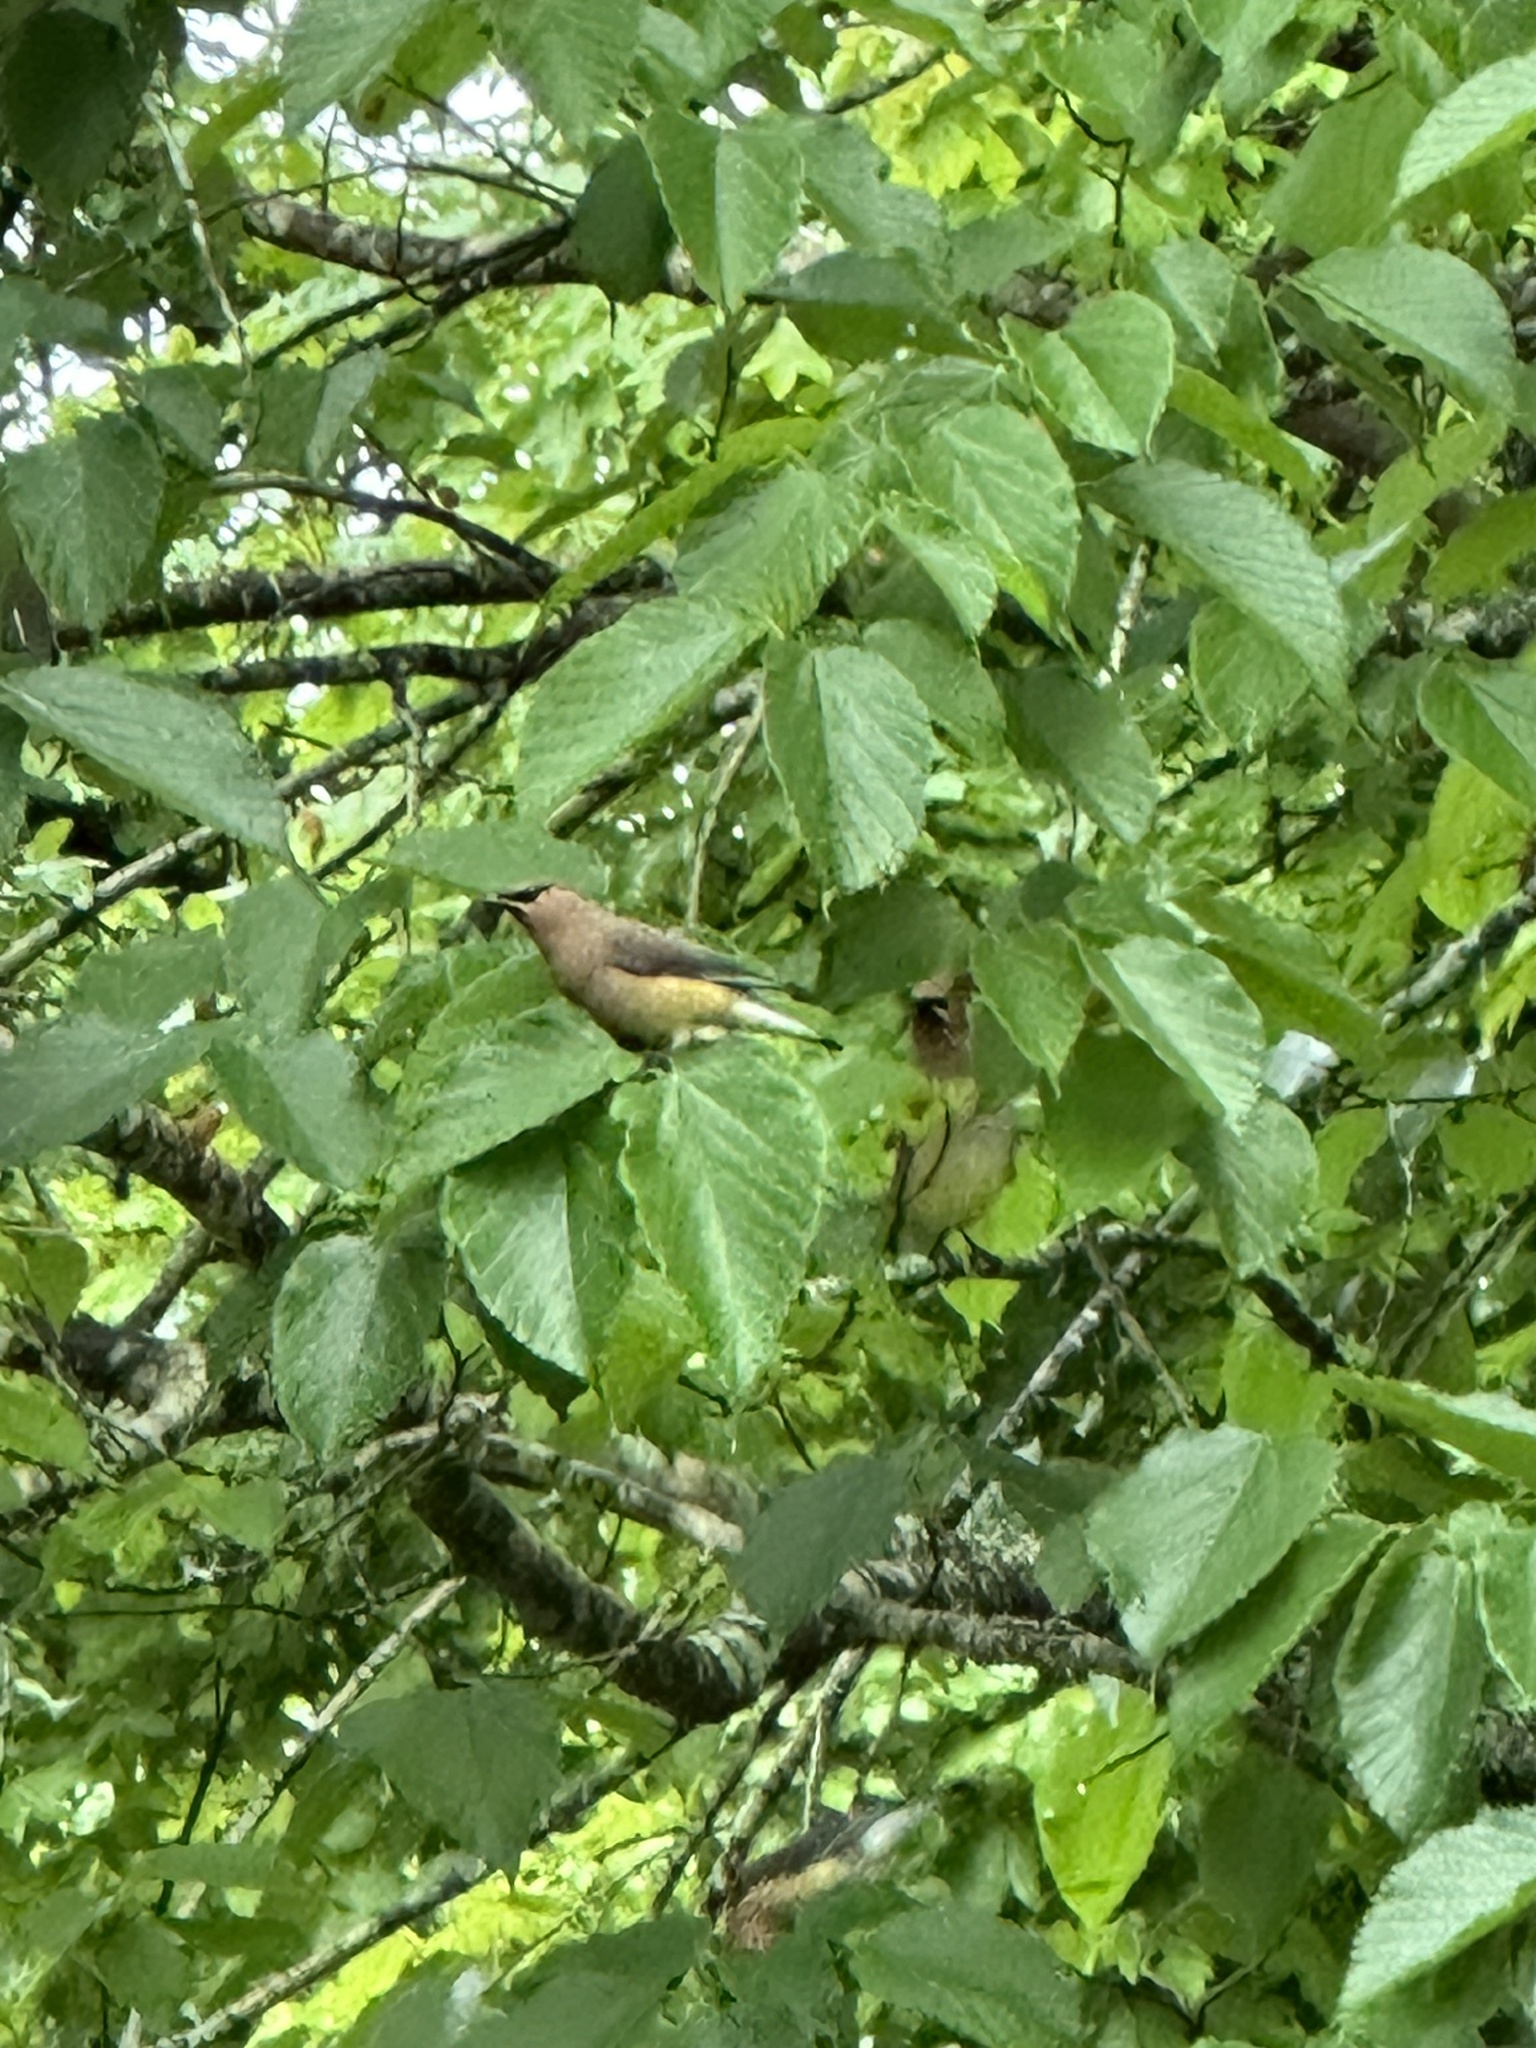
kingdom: Animalia
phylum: Chordata
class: Aves
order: Passeriformes
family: Bombycillidae
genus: Bombycilla
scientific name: Bombycilla cedrorum
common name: Cedar waxwing
